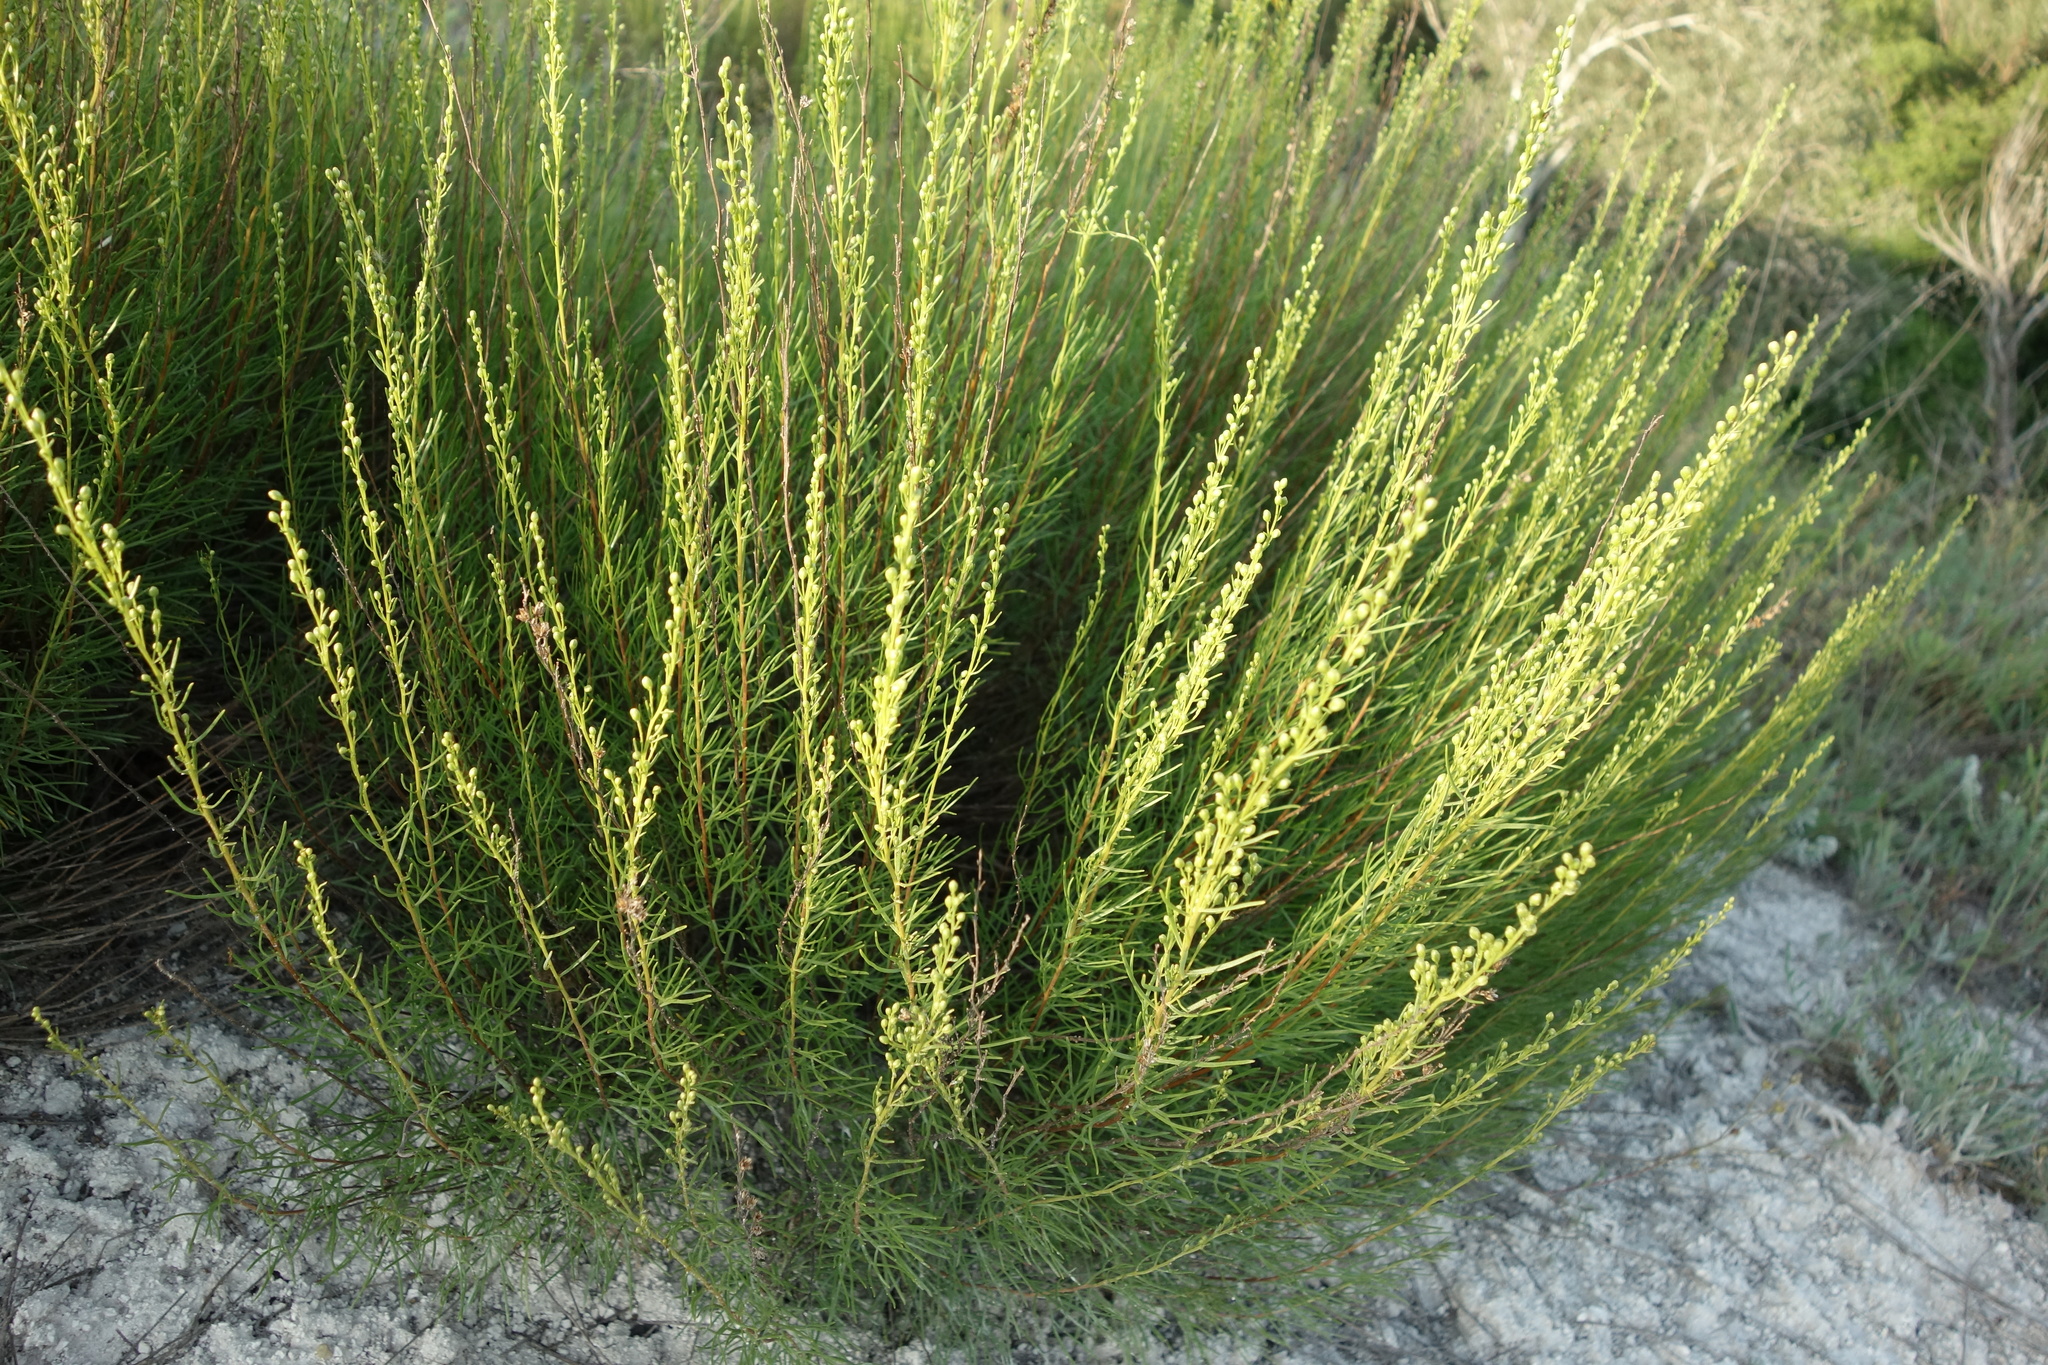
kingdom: Plantae
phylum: Tracheophyta
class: Magnoliopsida
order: Asterales
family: Asteraceae
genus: Artemisia
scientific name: Artemisia salsoloides
